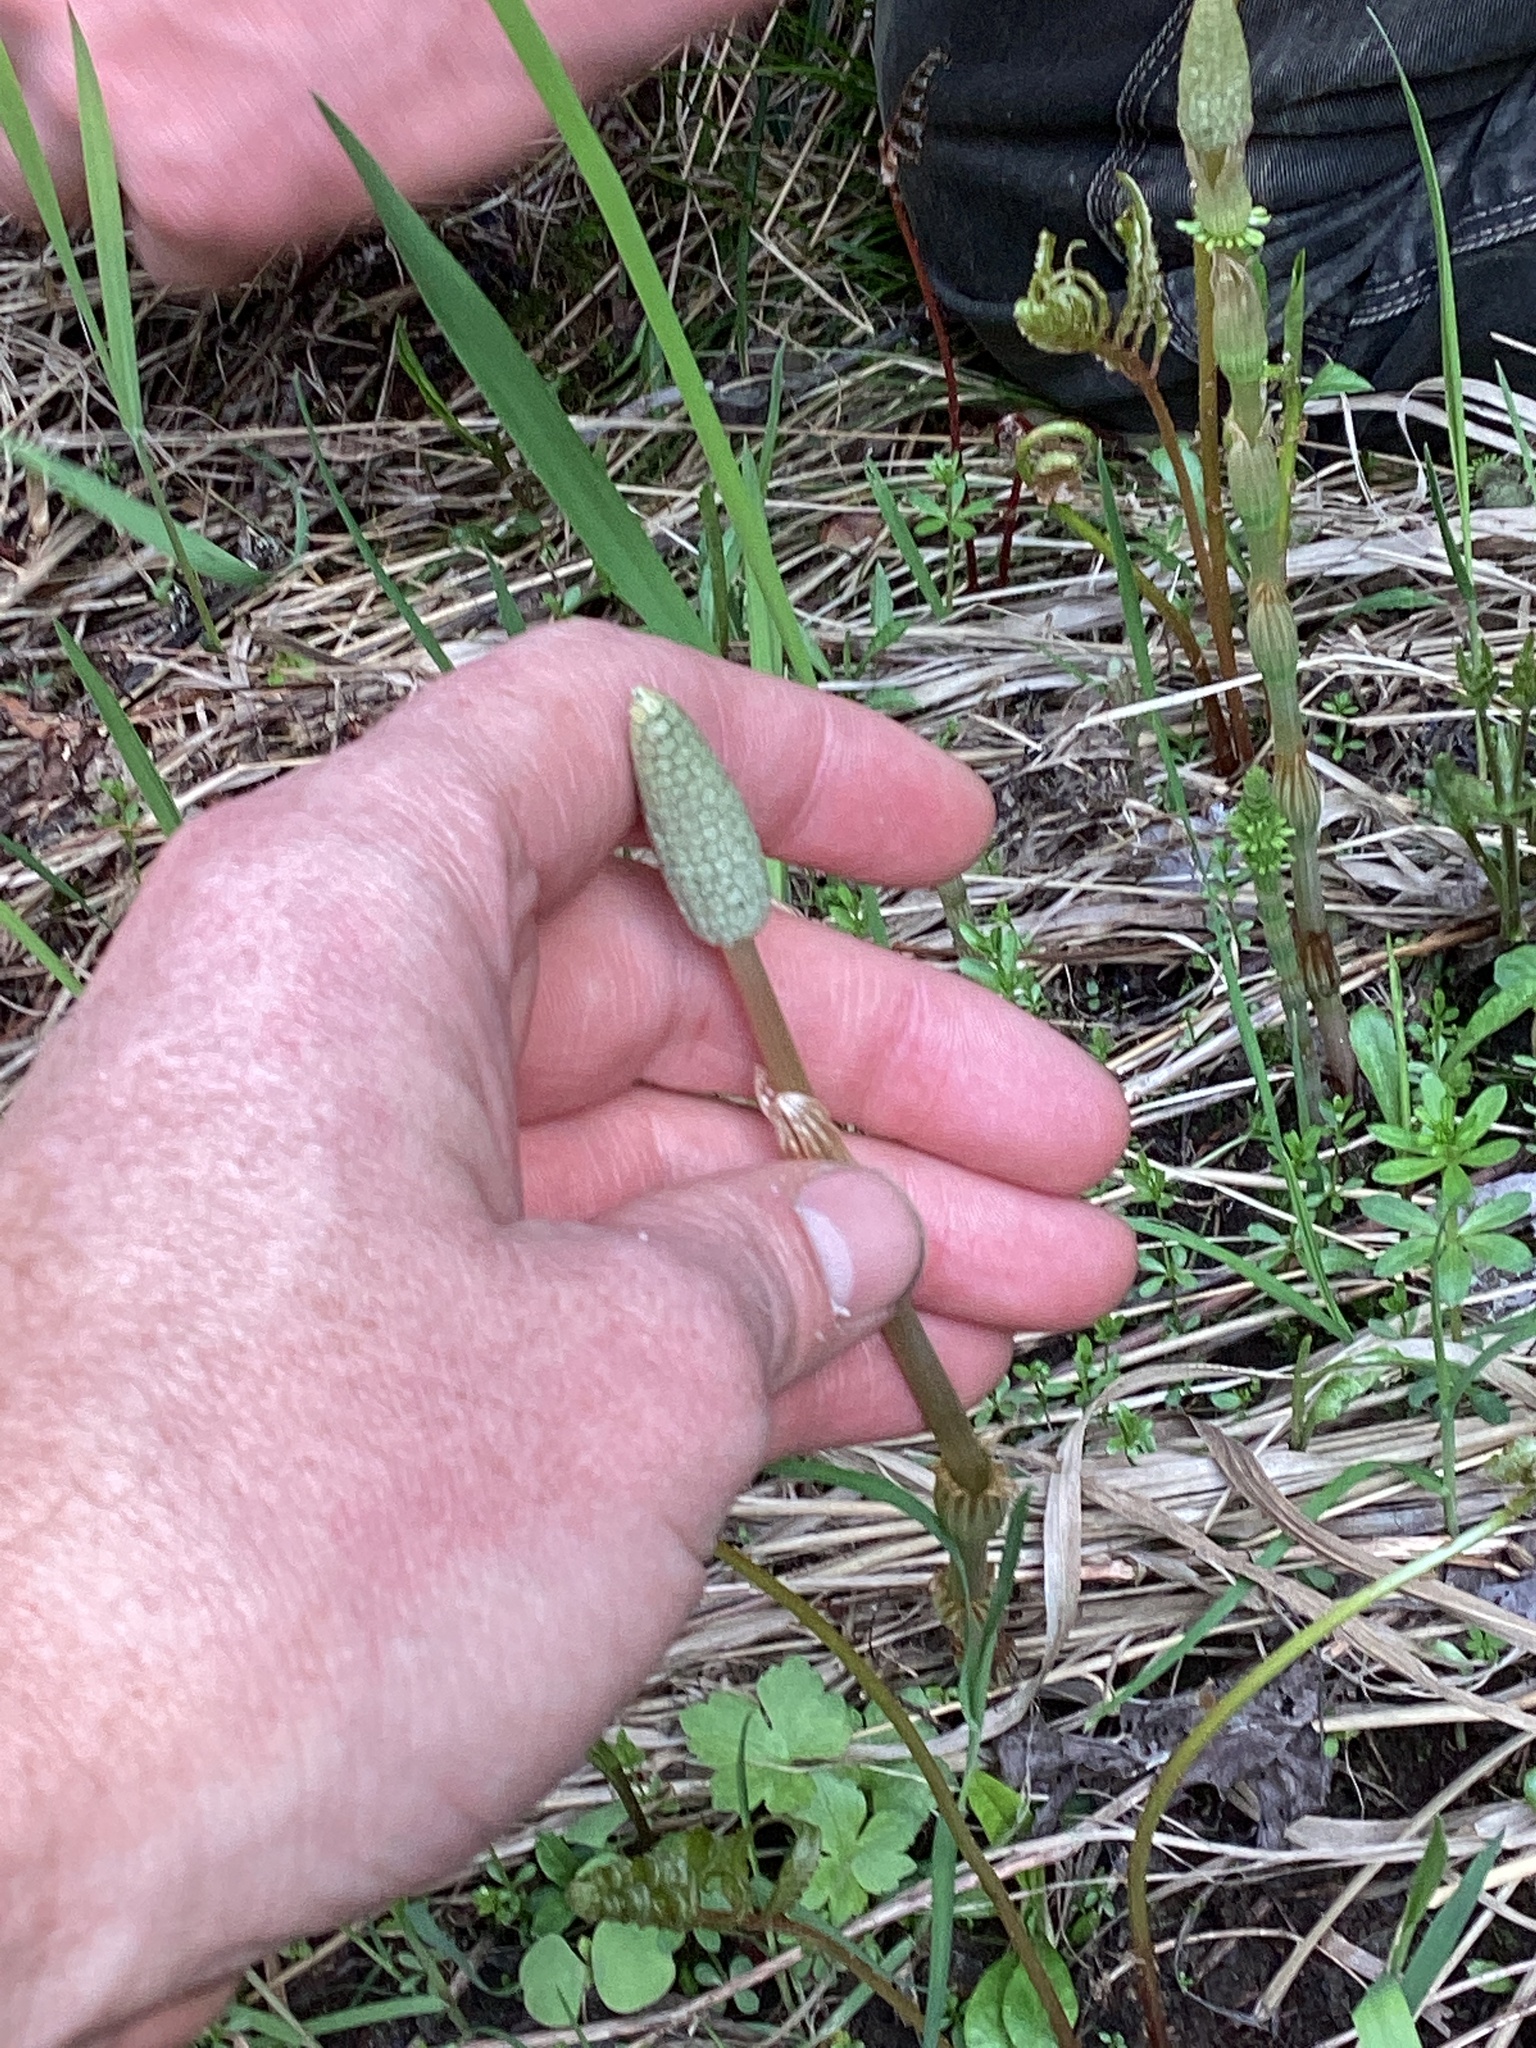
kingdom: Plantae
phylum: Tracheophyta
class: Polypodiopsida
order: Equisetales
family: Equisetaceae
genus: Equisetum
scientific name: Equisetum sylvaticum
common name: Wood horsetail
